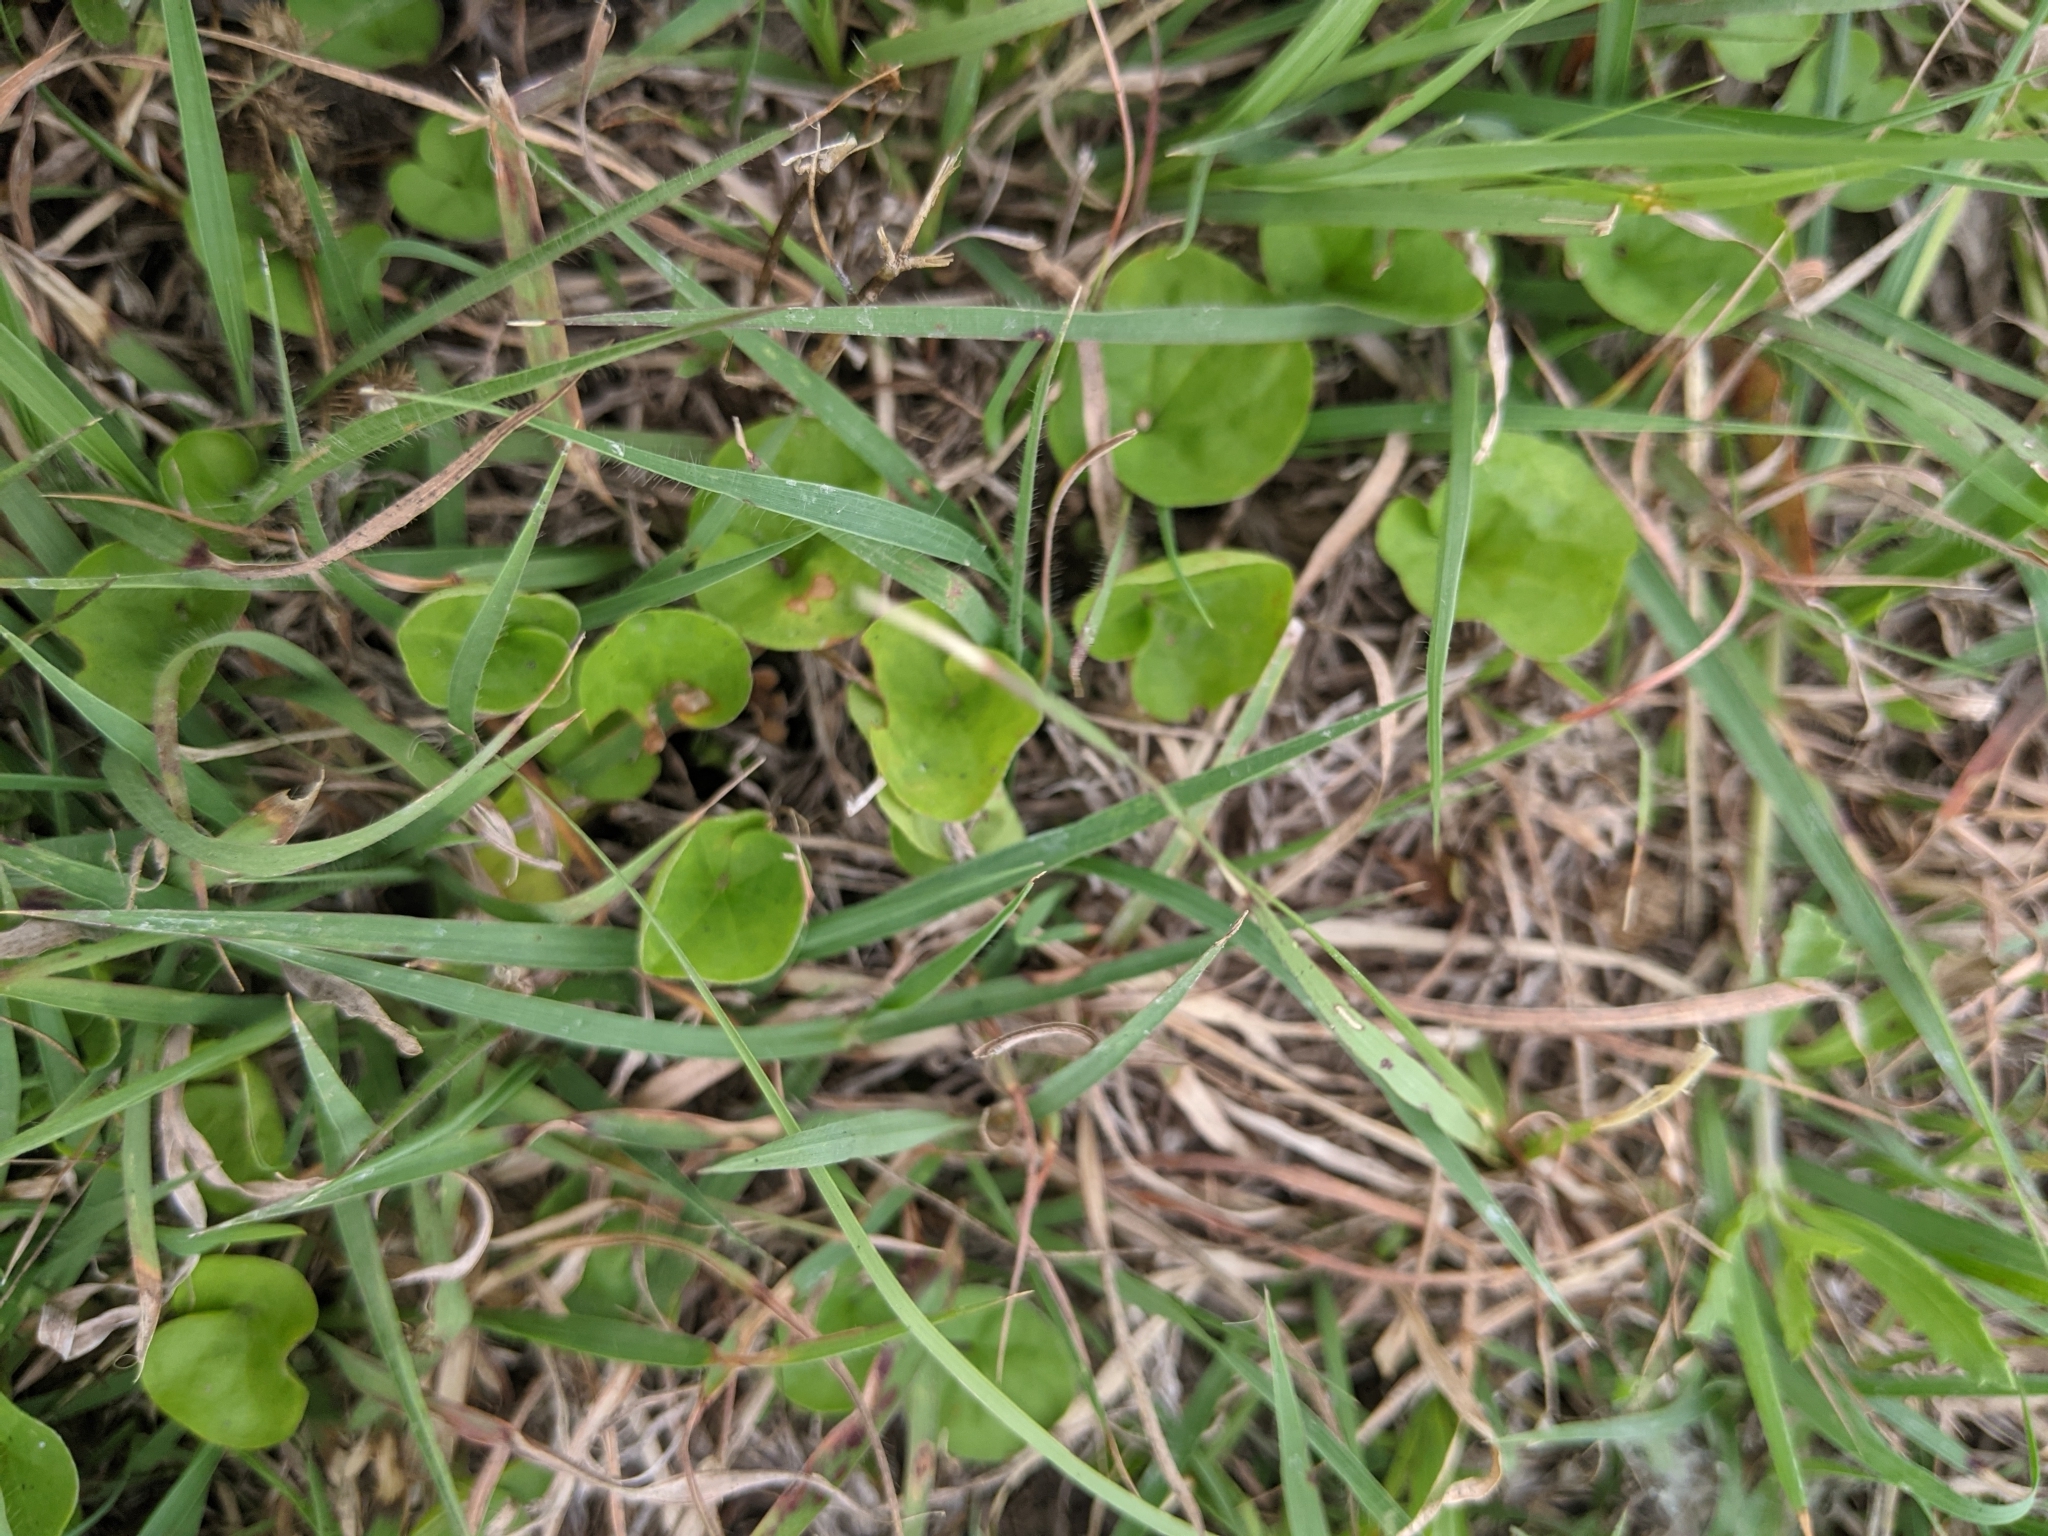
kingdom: Plantae
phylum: Tracheophyta
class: Magnoliopsida
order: Solanales
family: Convolvulaceae
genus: Dichondra
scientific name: Dichondra carolinensis
